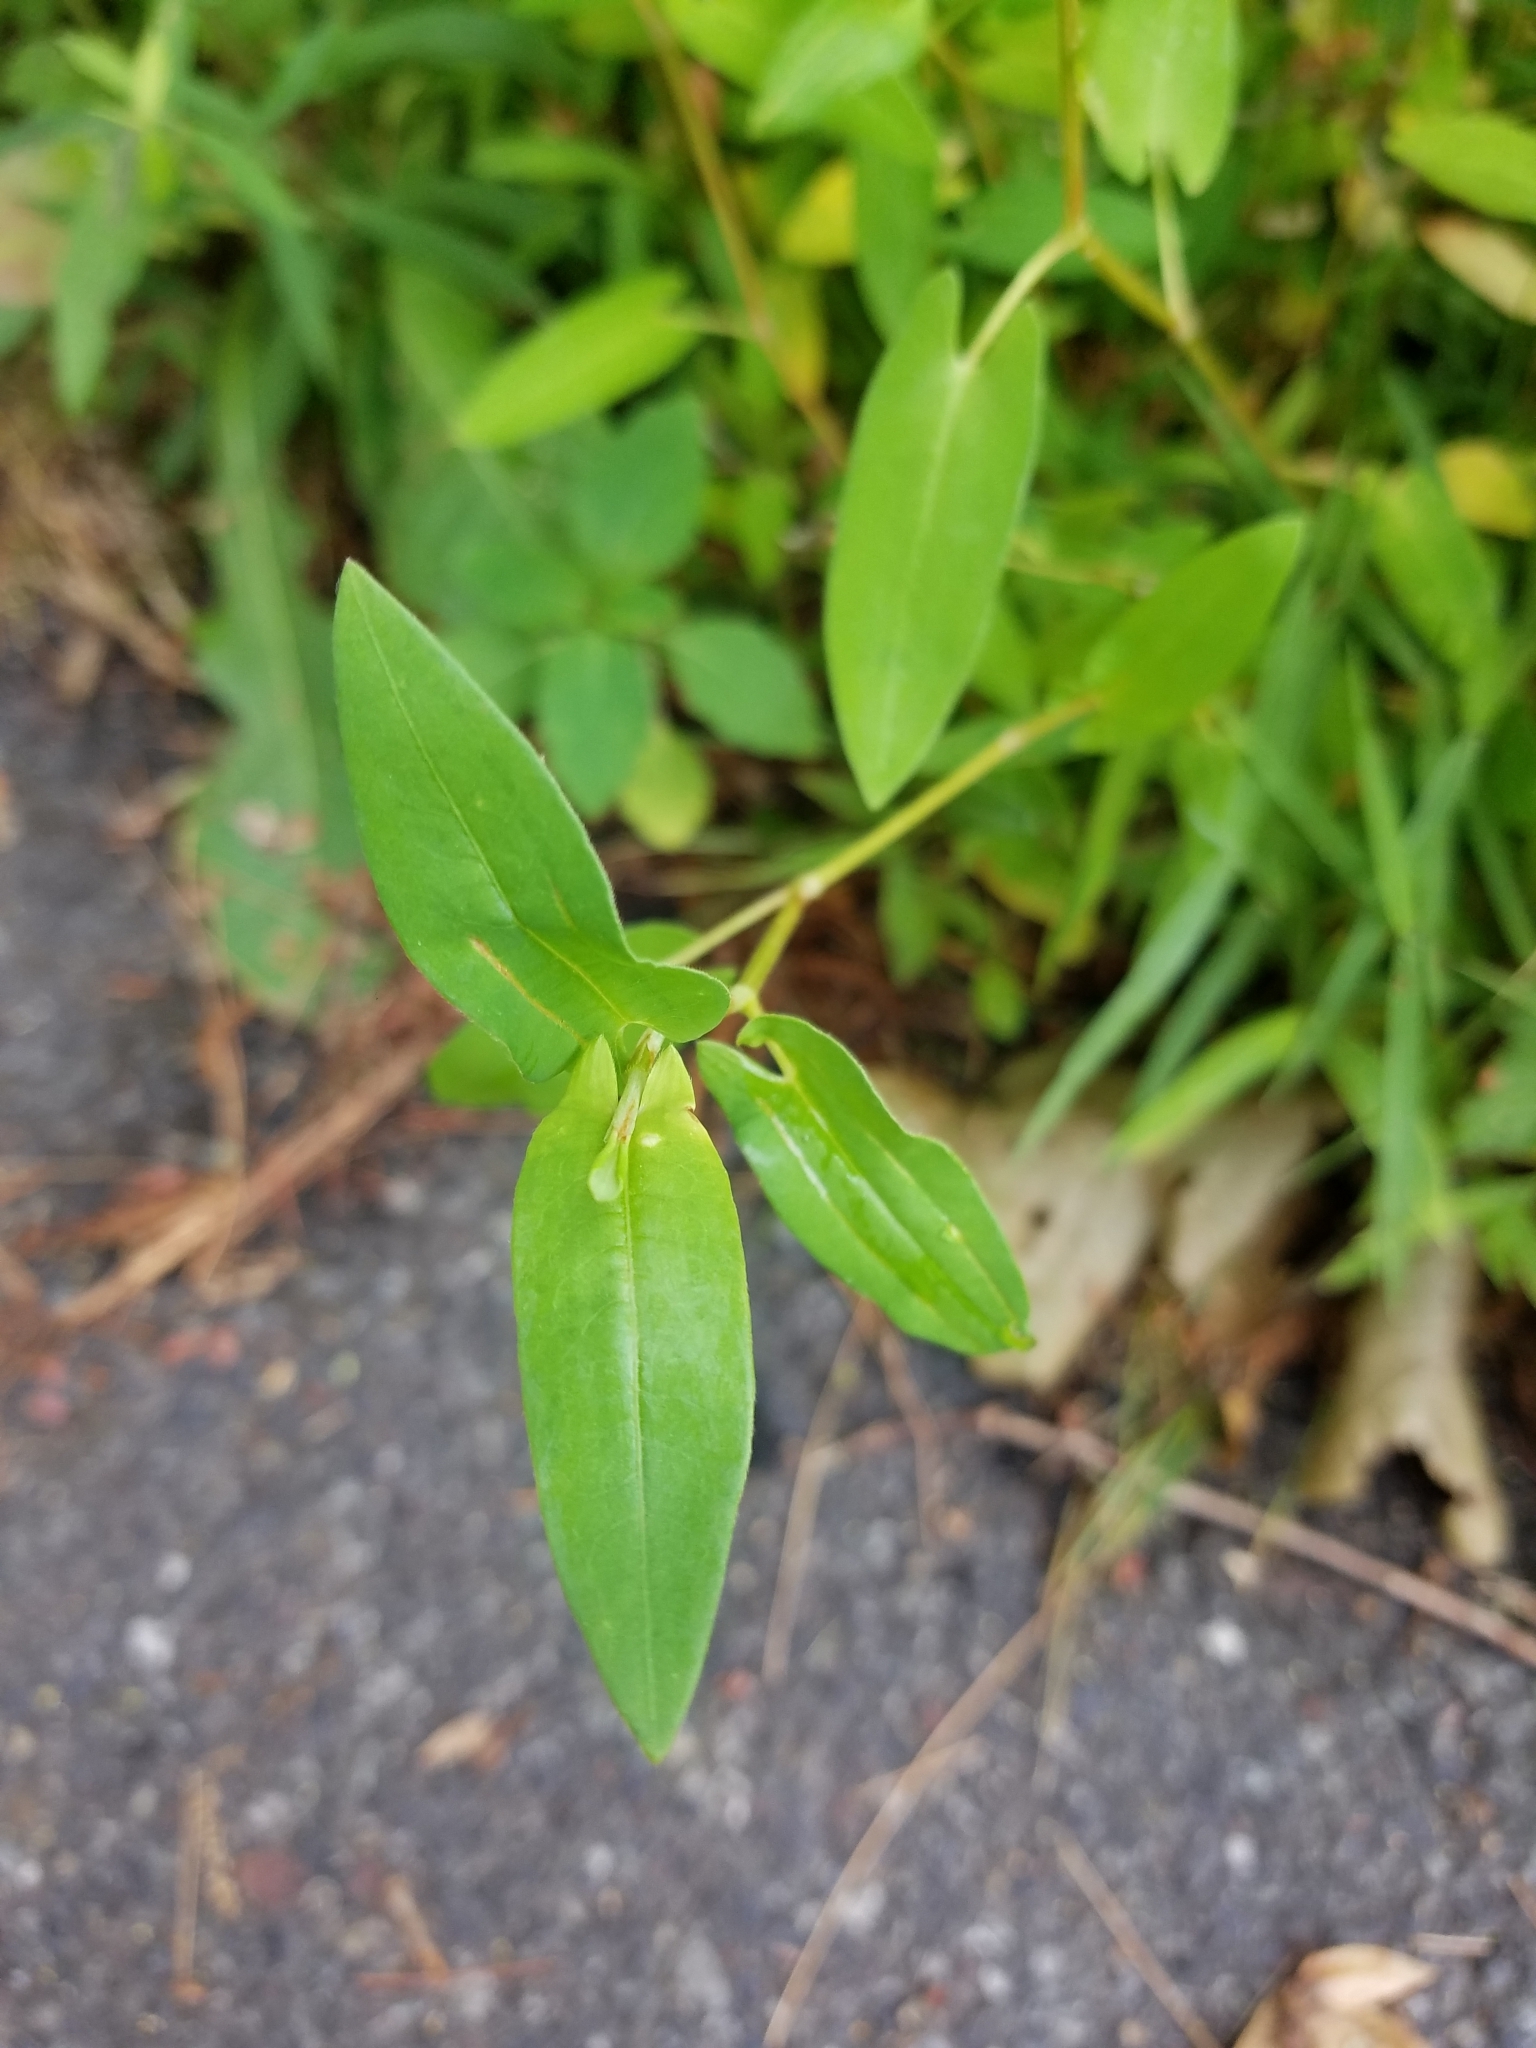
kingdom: Plantae
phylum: Tracheophyta
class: Magnoliopsida
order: Caryophyllales
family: Polygonaceae
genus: Persicaria
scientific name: Persicaria sagittata
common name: American tearthumb
